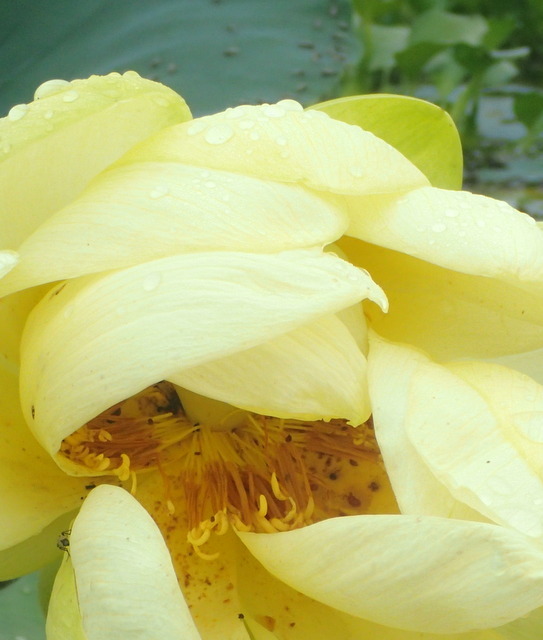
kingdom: Plantae
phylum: Tracheophyta
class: Magnoliopsida
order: Proteales
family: Nelumbonaceae
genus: Nelumbo
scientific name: Nelumbo lutea
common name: American lotus
